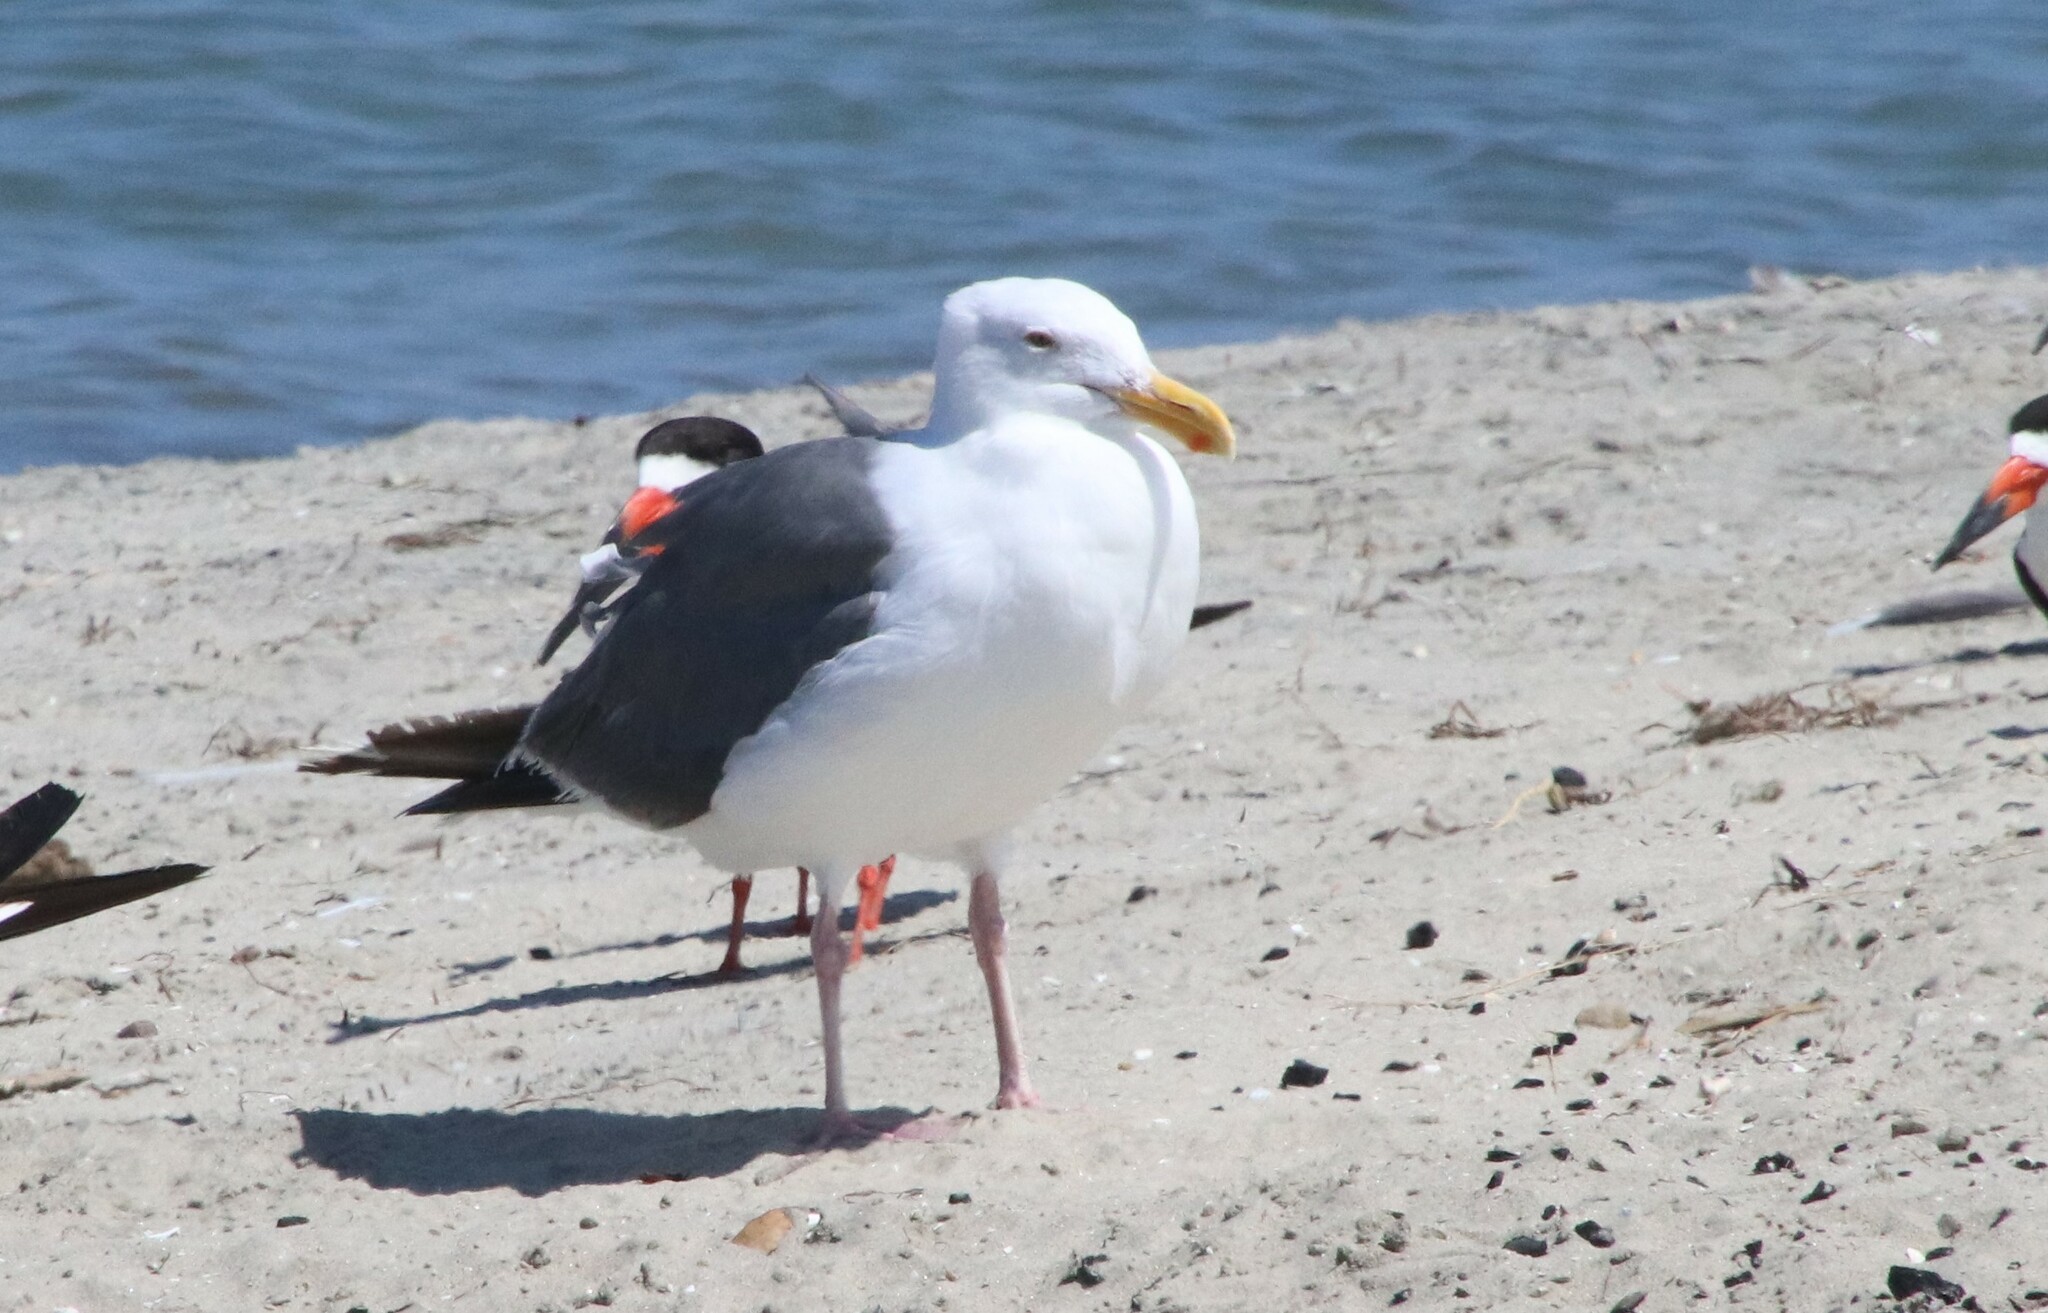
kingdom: Animalia
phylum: Chordata
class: Aves
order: Charadriiformes
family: Laridae
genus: Larus
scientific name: Larus occidentalis
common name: Western gull
